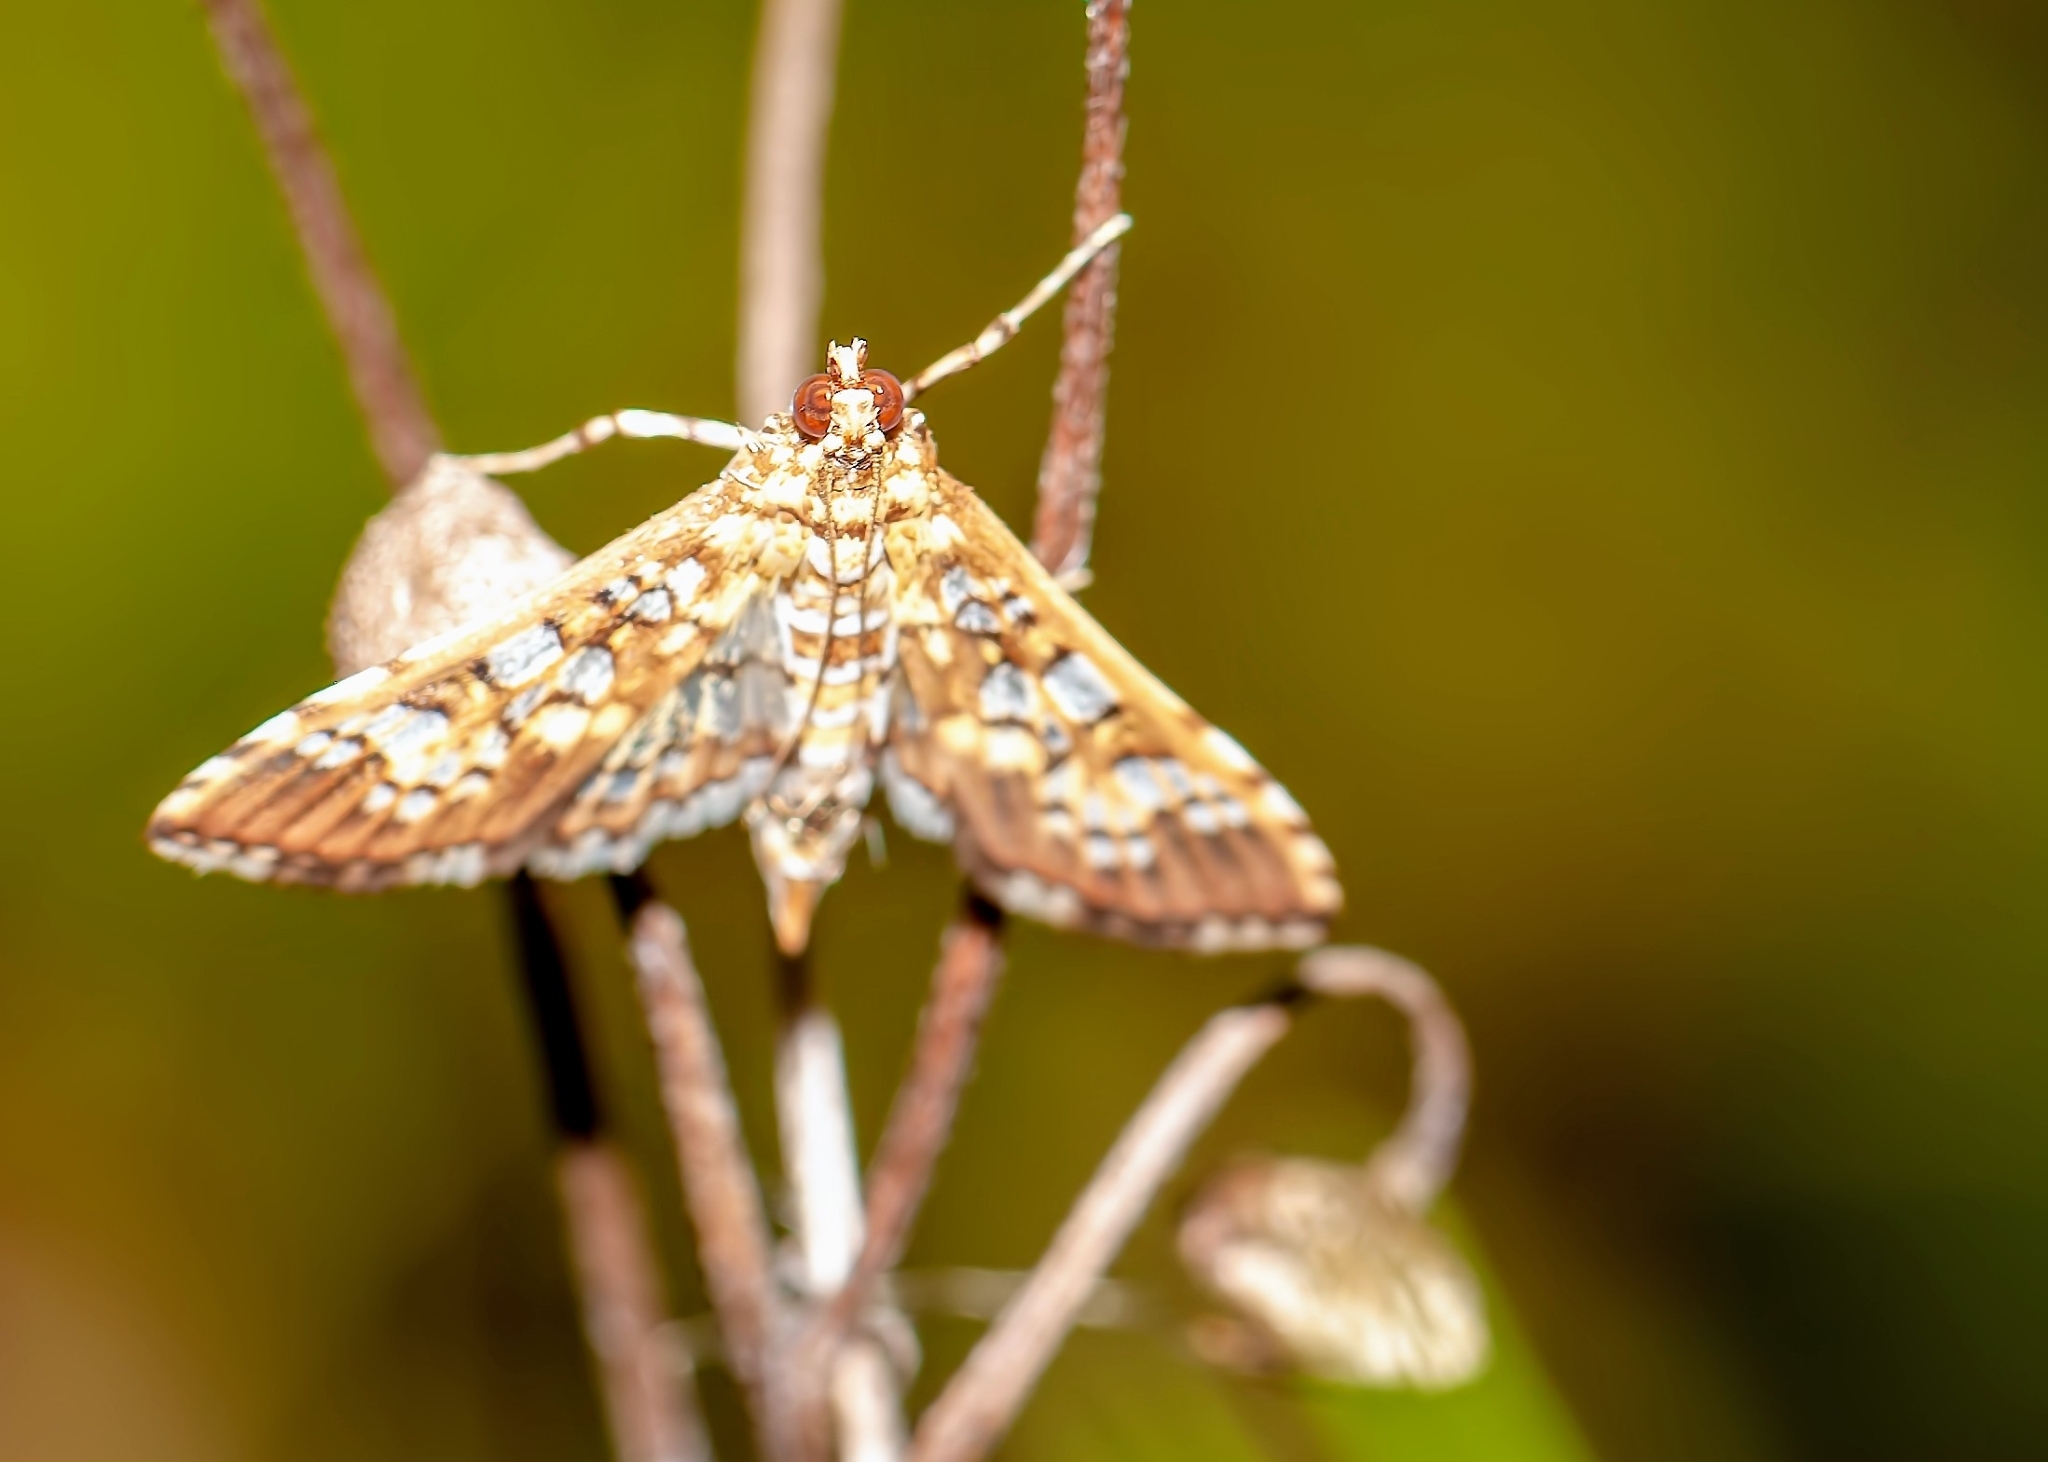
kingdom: Animalia
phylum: Arthropoda
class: Insecta
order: Lepidoptera
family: Crambidae
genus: Samea
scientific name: Samea ecclesialis
